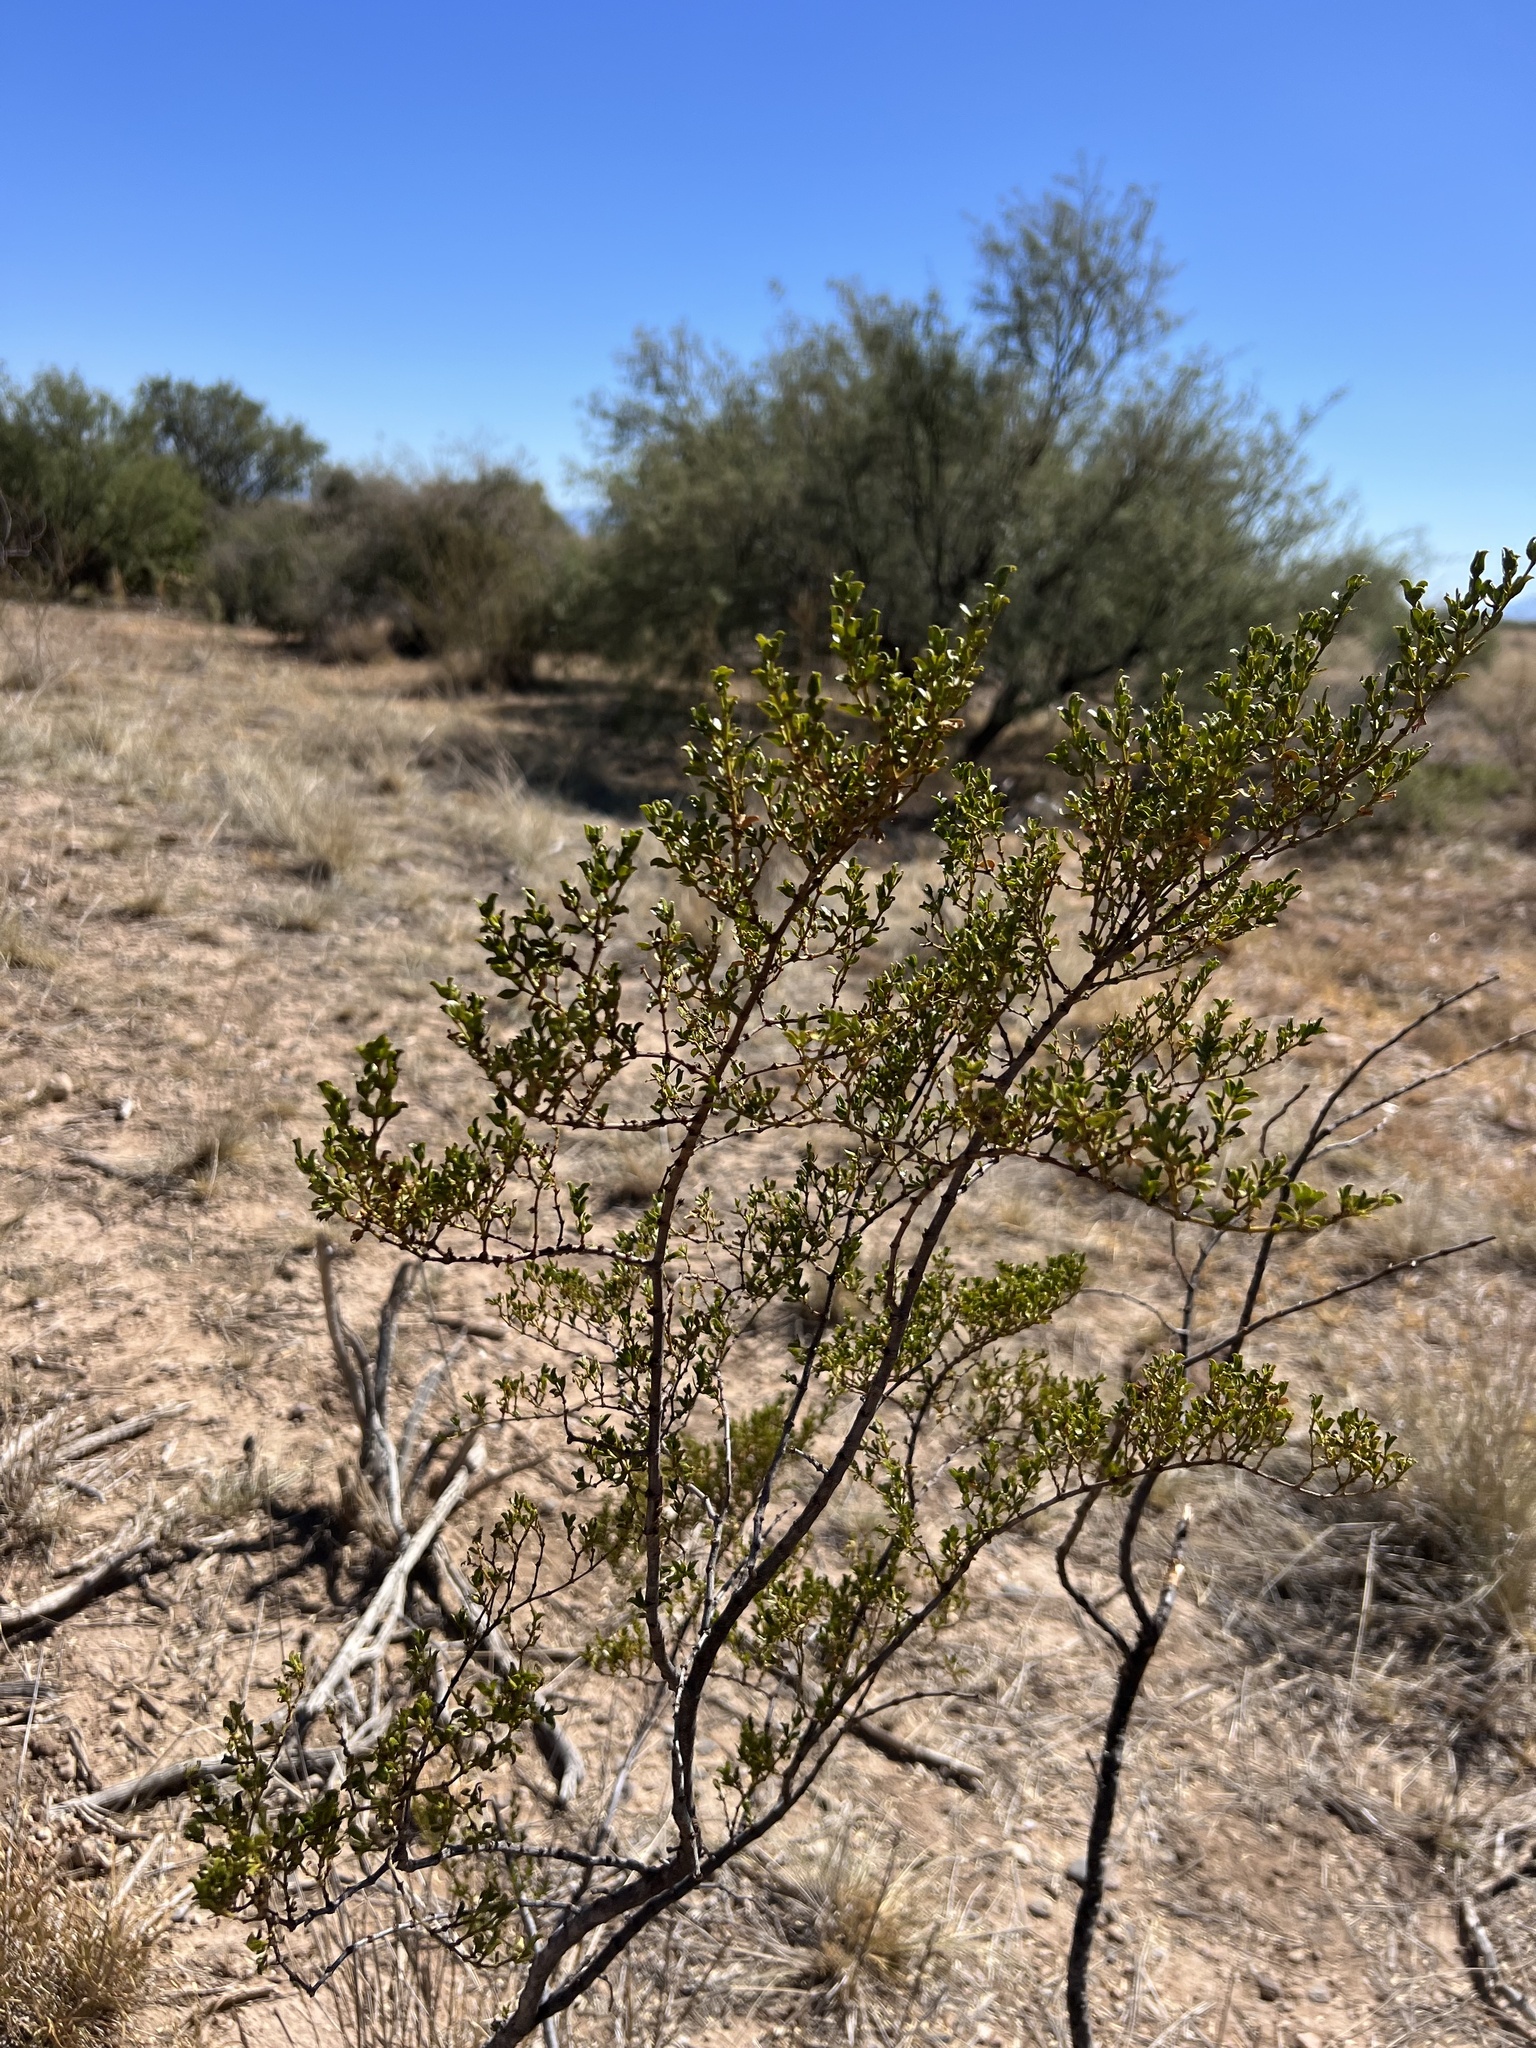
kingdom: Plantae
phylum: Tracheophyta
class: Magnoliopsida
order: Zygophyllales
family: Zygophyllaceae
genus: Larrea
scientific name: Larrea tridentata
